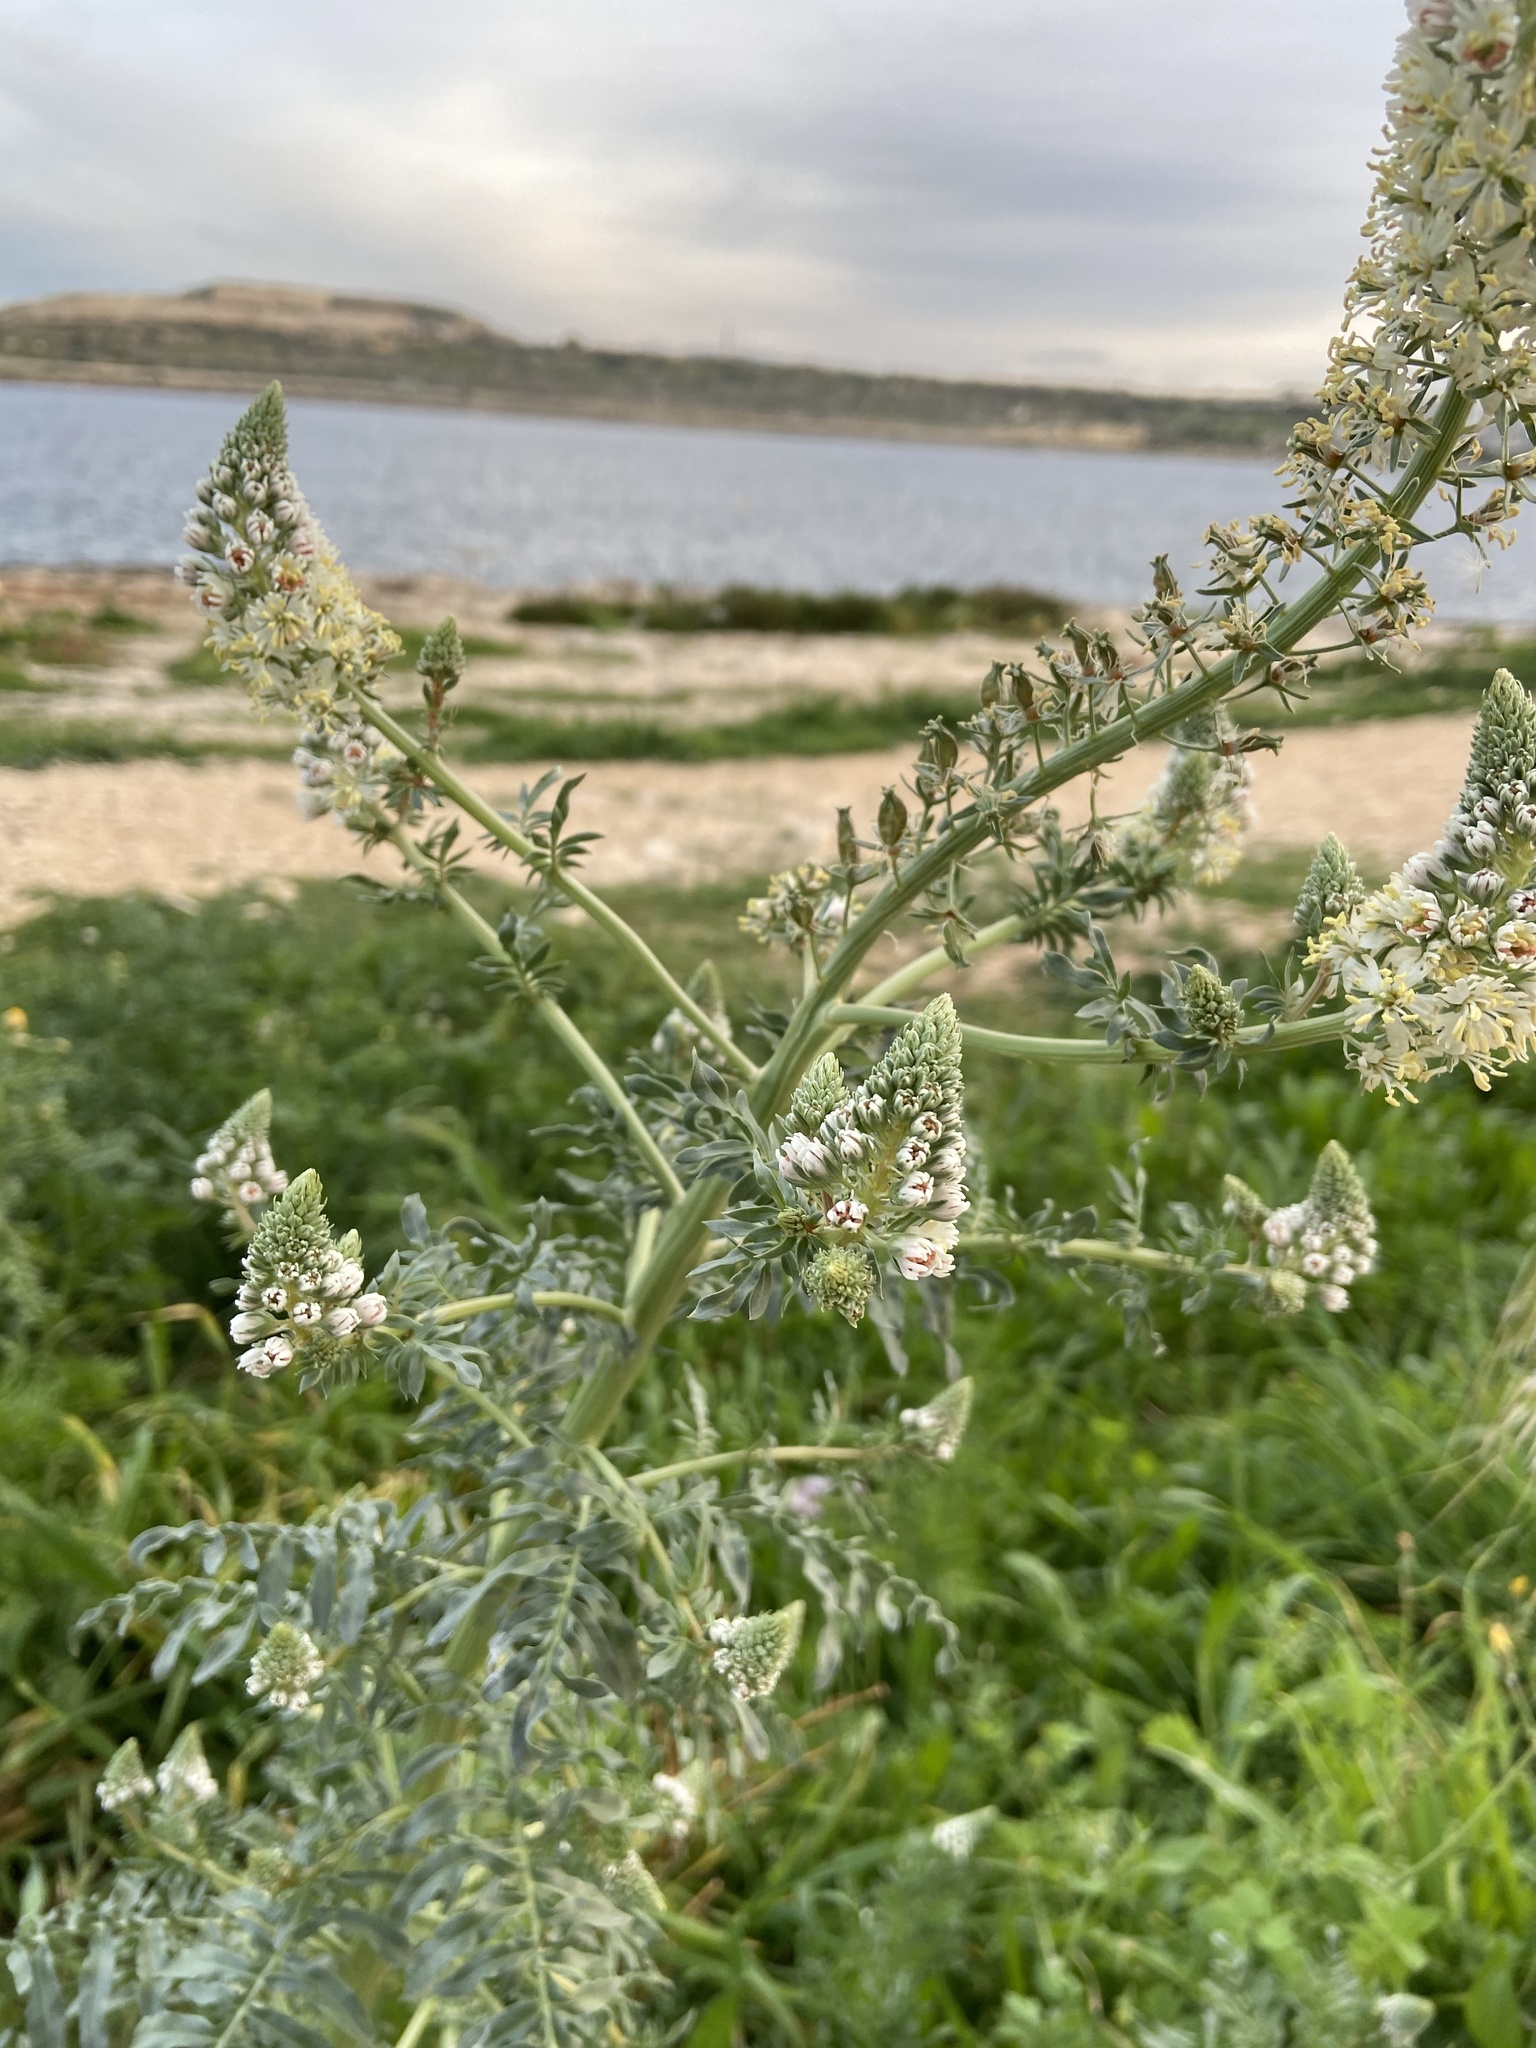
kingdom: Plantae
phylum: Tracheophyta
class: Magnoliopsida
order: Brassicales
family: Resedaceae
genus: Reseda
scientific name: Reseda alba
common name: White mignonette
